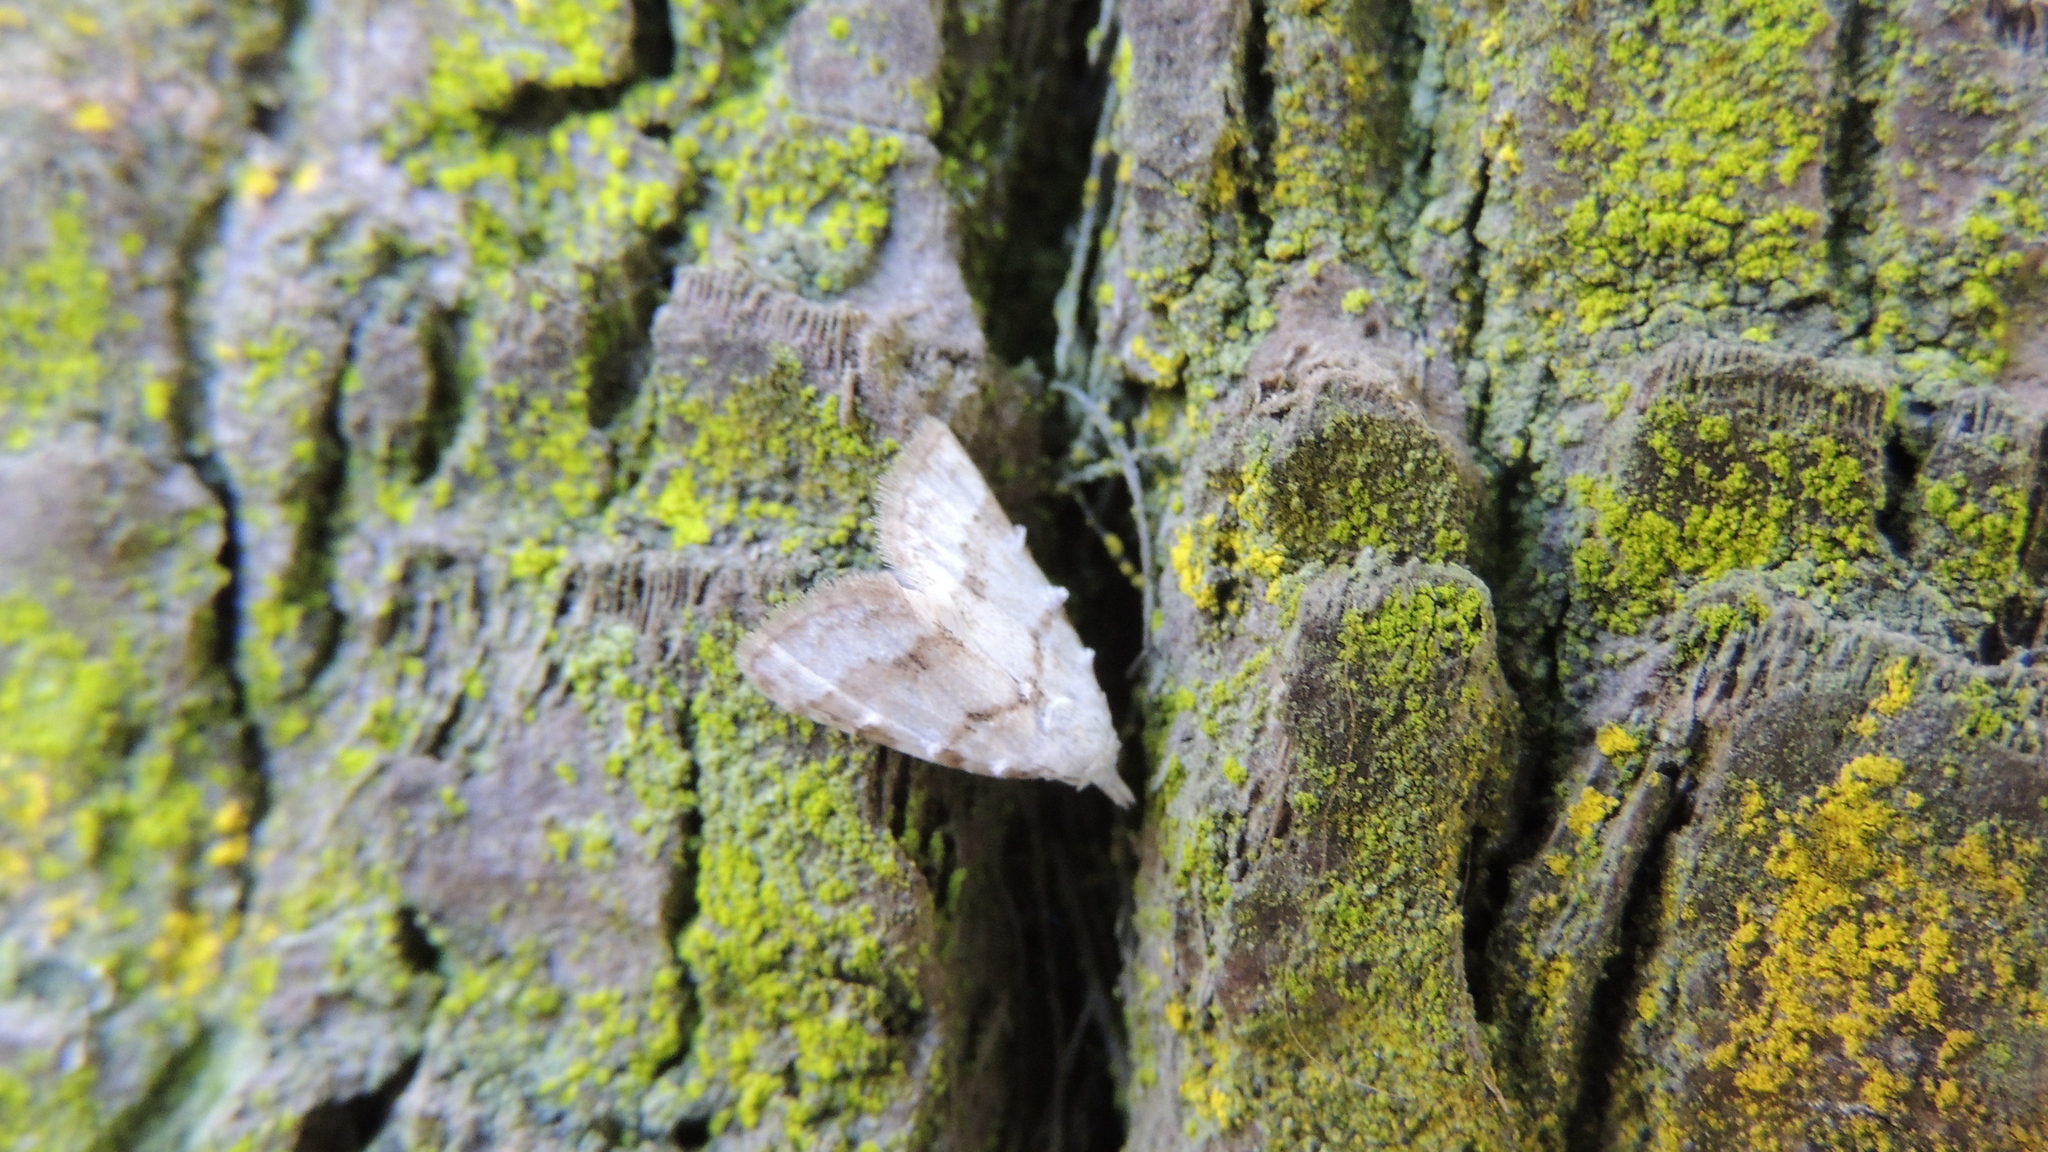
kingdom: Animalia
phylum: Arthropoda
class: Insecta
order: Lepidoptera
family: Nolidae
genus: Nola
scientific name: Nola aerugula
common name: Scarce black arches
